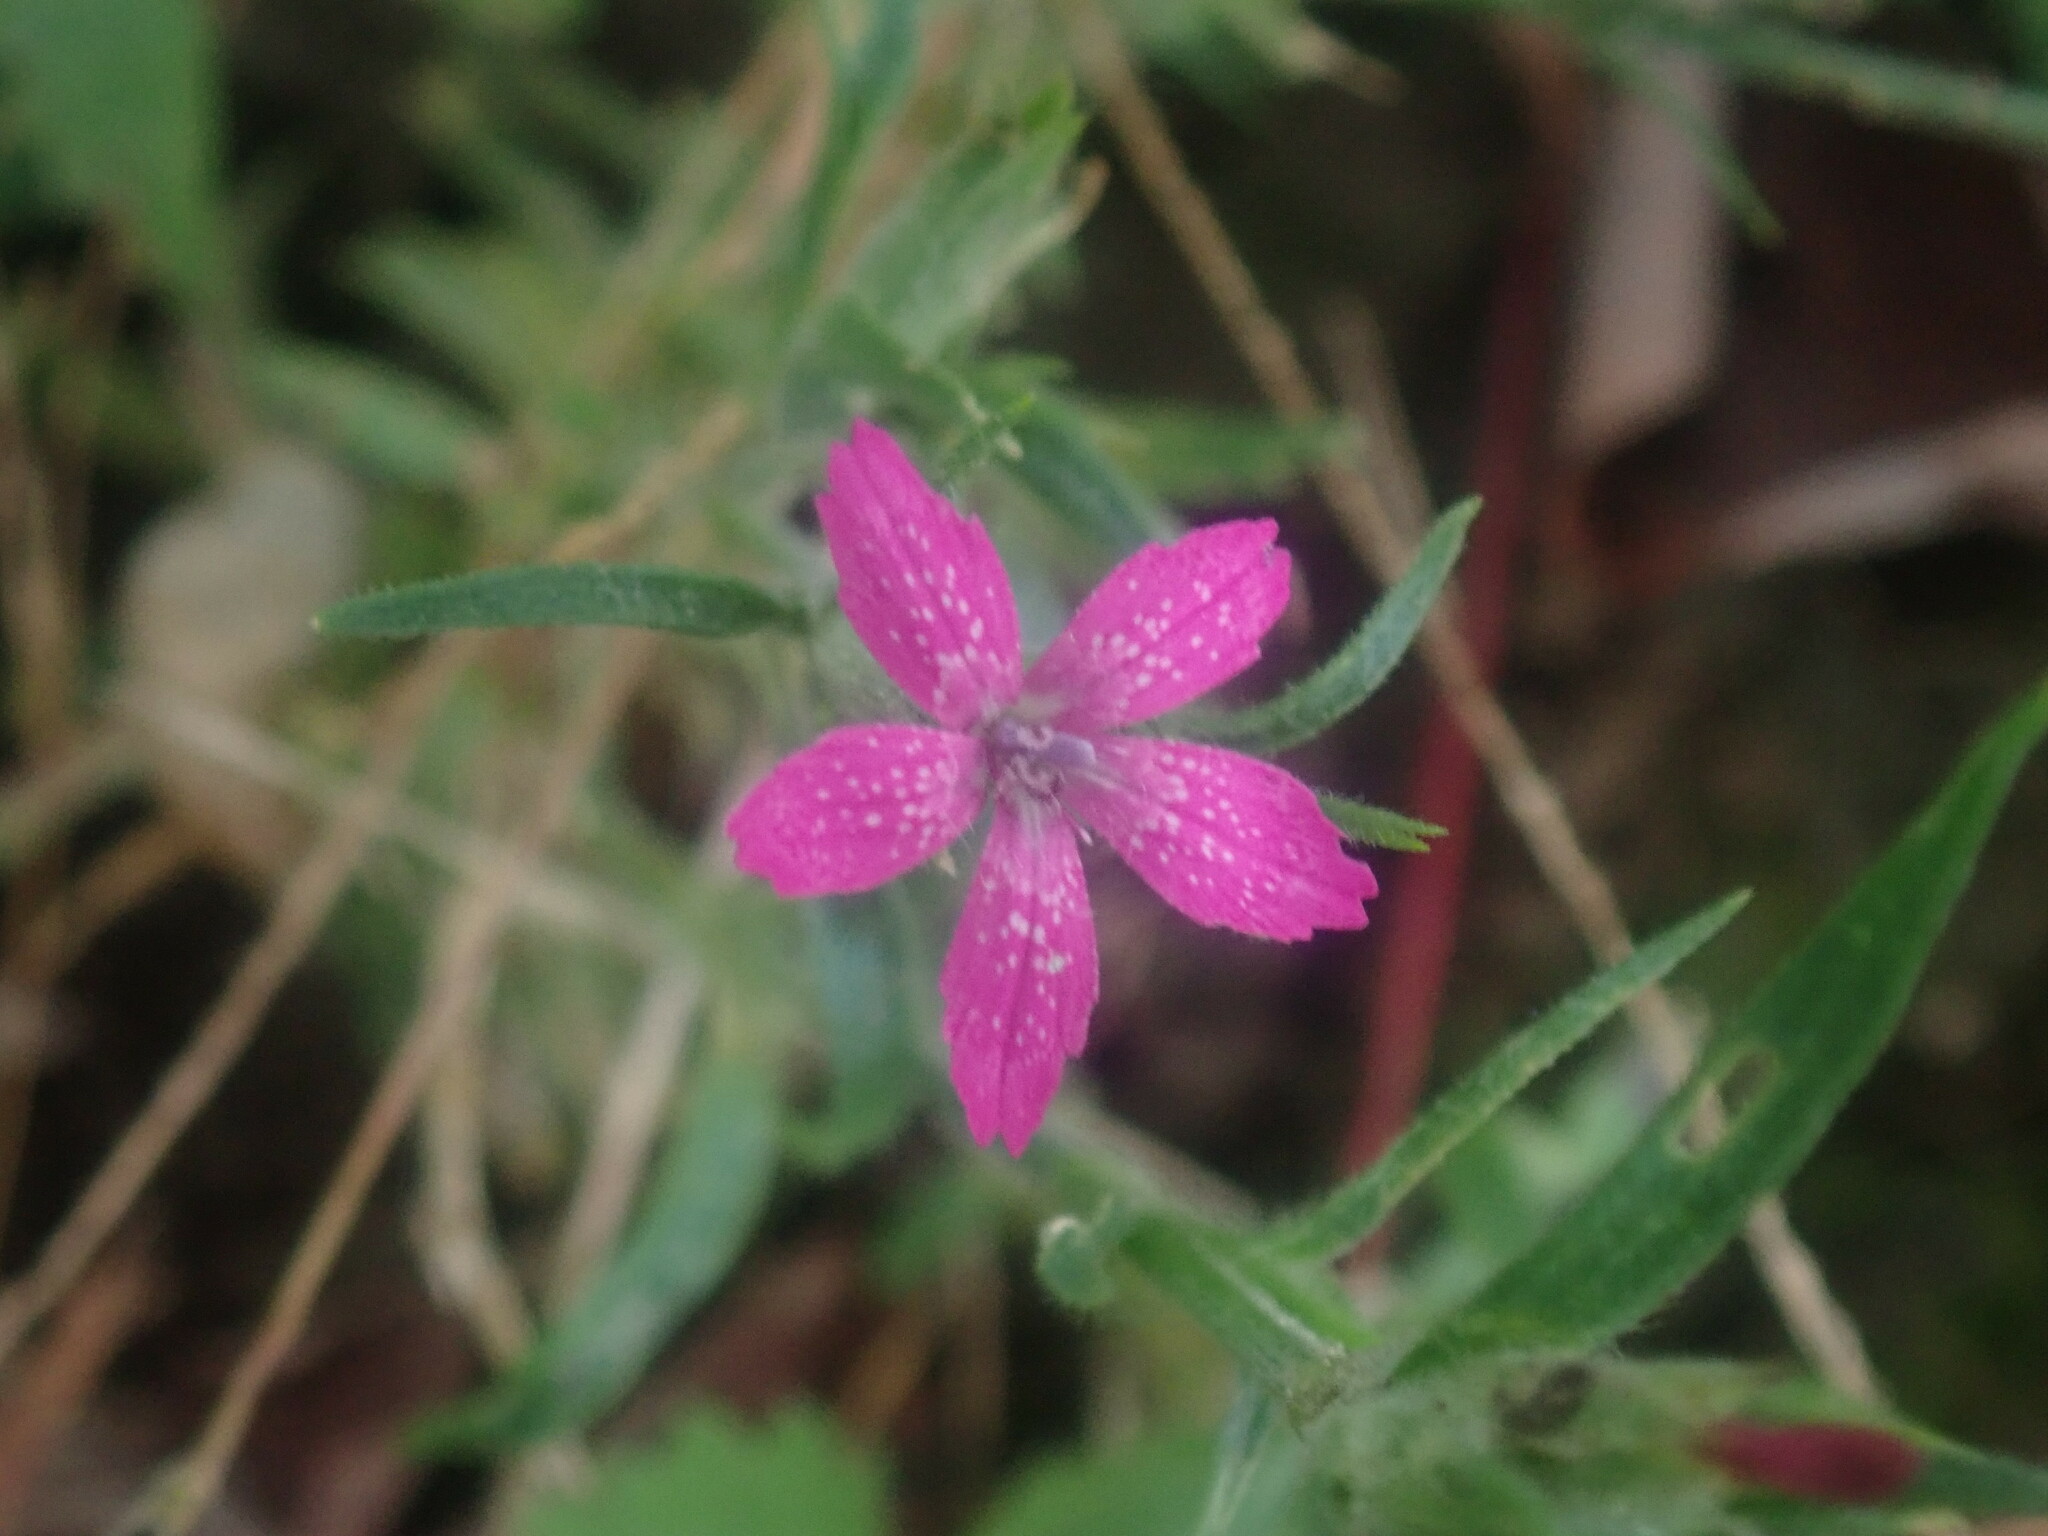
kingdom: Plantae
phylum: Tracheophyta
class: Magnoliopsida
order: Caryophyllales
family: Caryophyllaceae
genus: Dianthus
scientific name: Dianthus armeria
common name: Deptford pink
